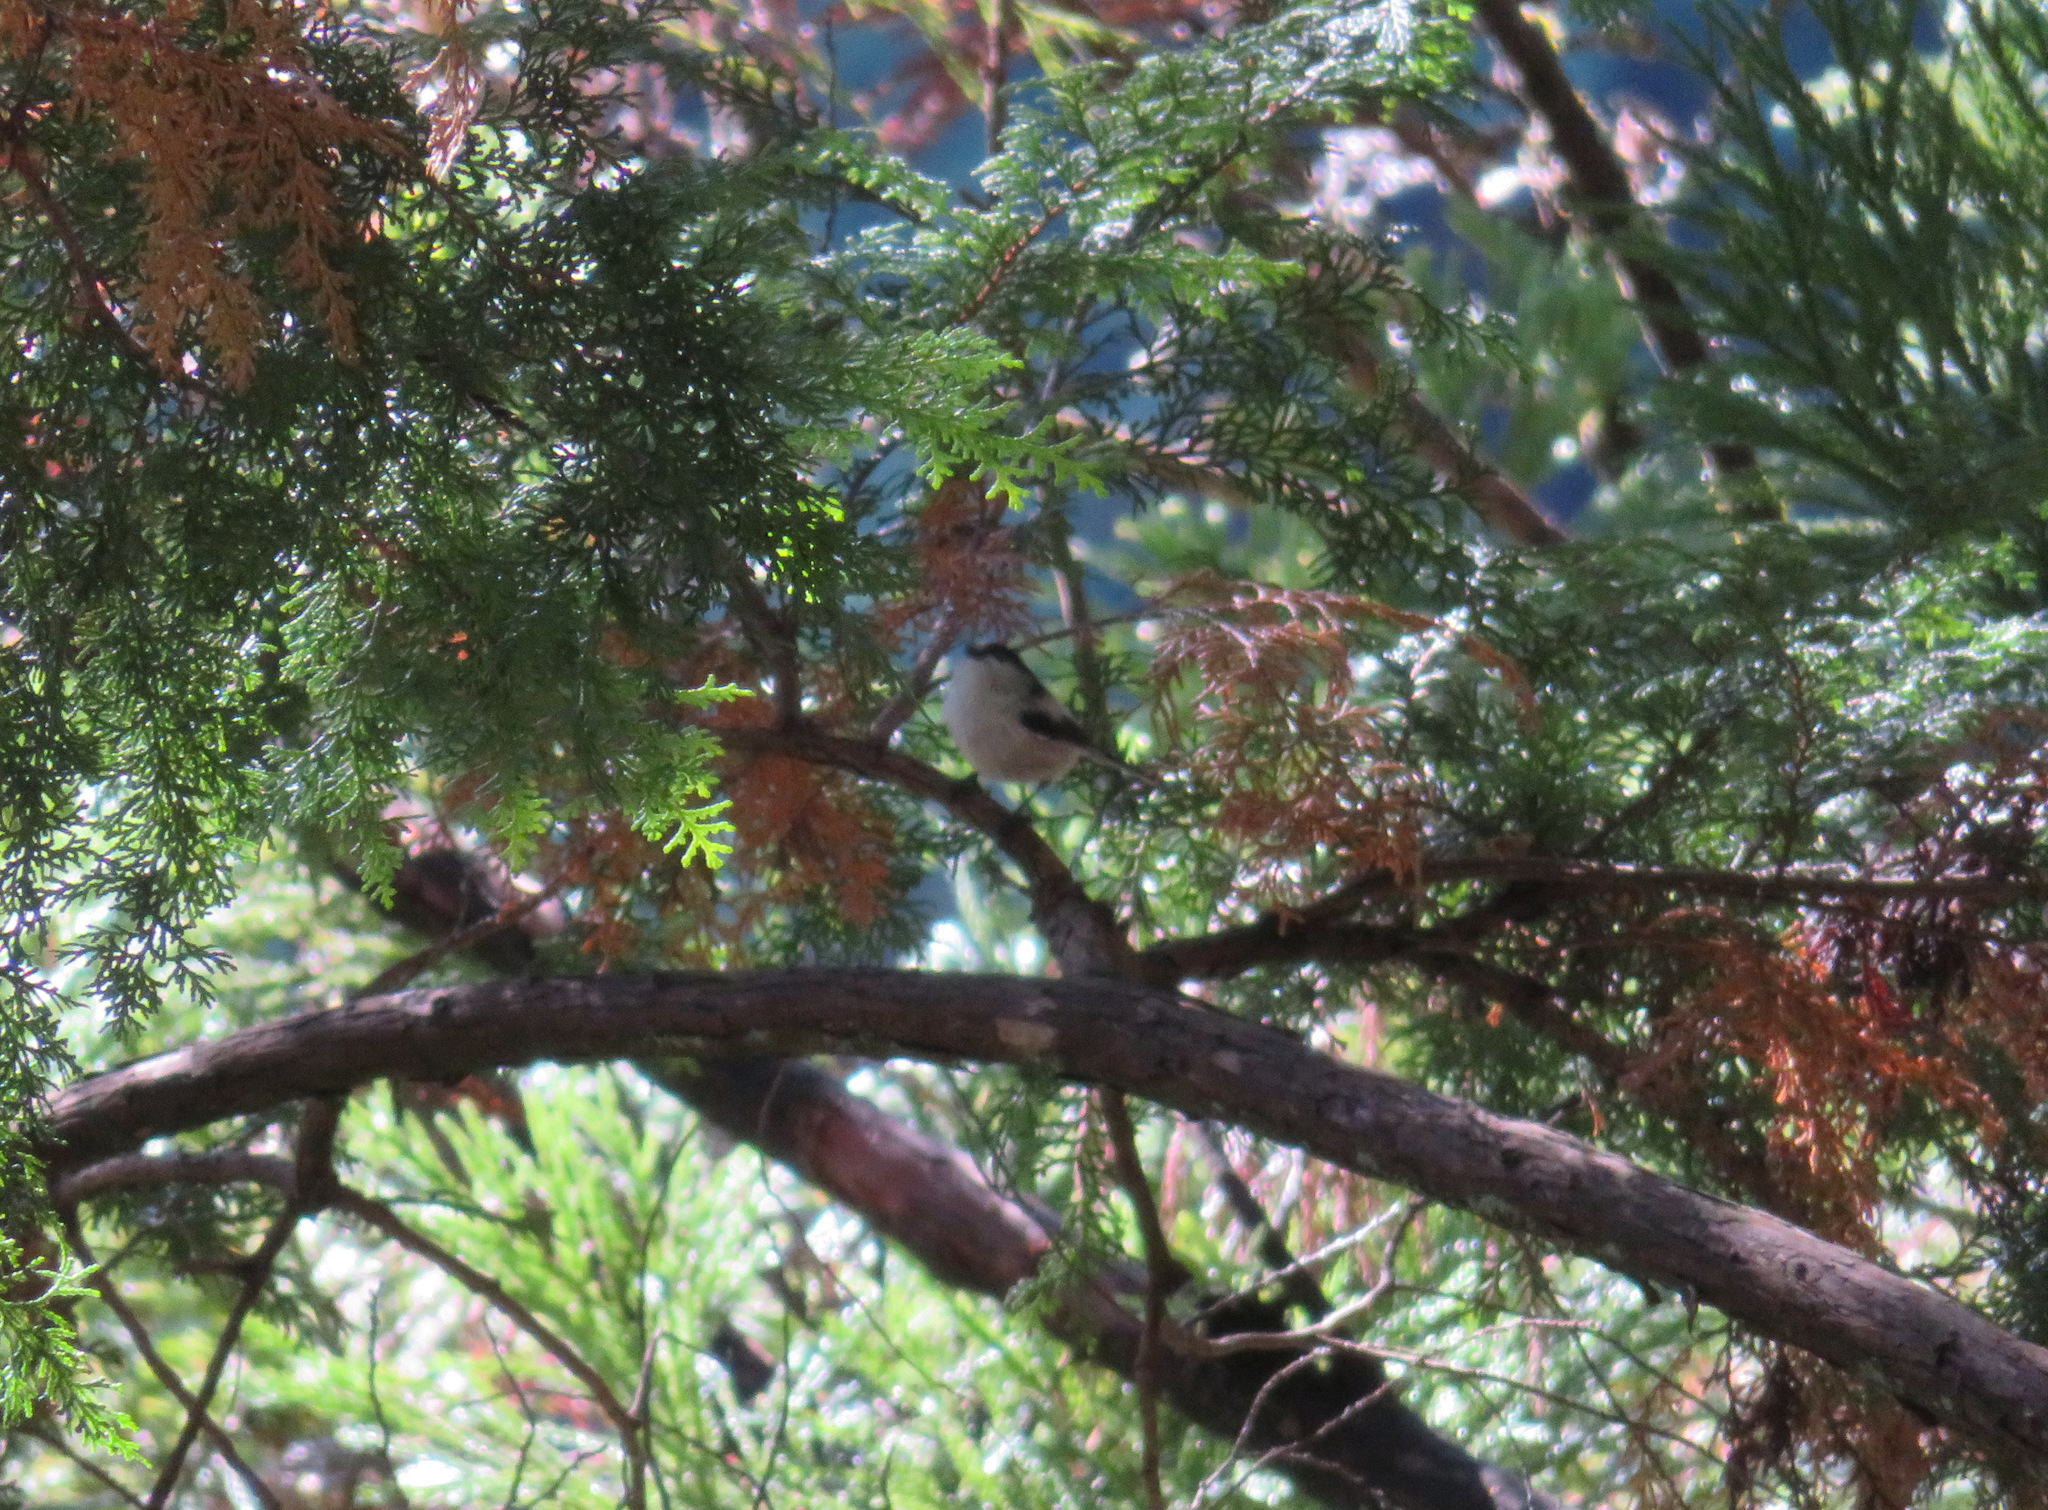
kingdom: Animalia
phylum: Chordata
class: Aves
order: Passeriformes
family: Aegithalidae
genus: Aegithalos
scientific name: Aegithalos caudatus
